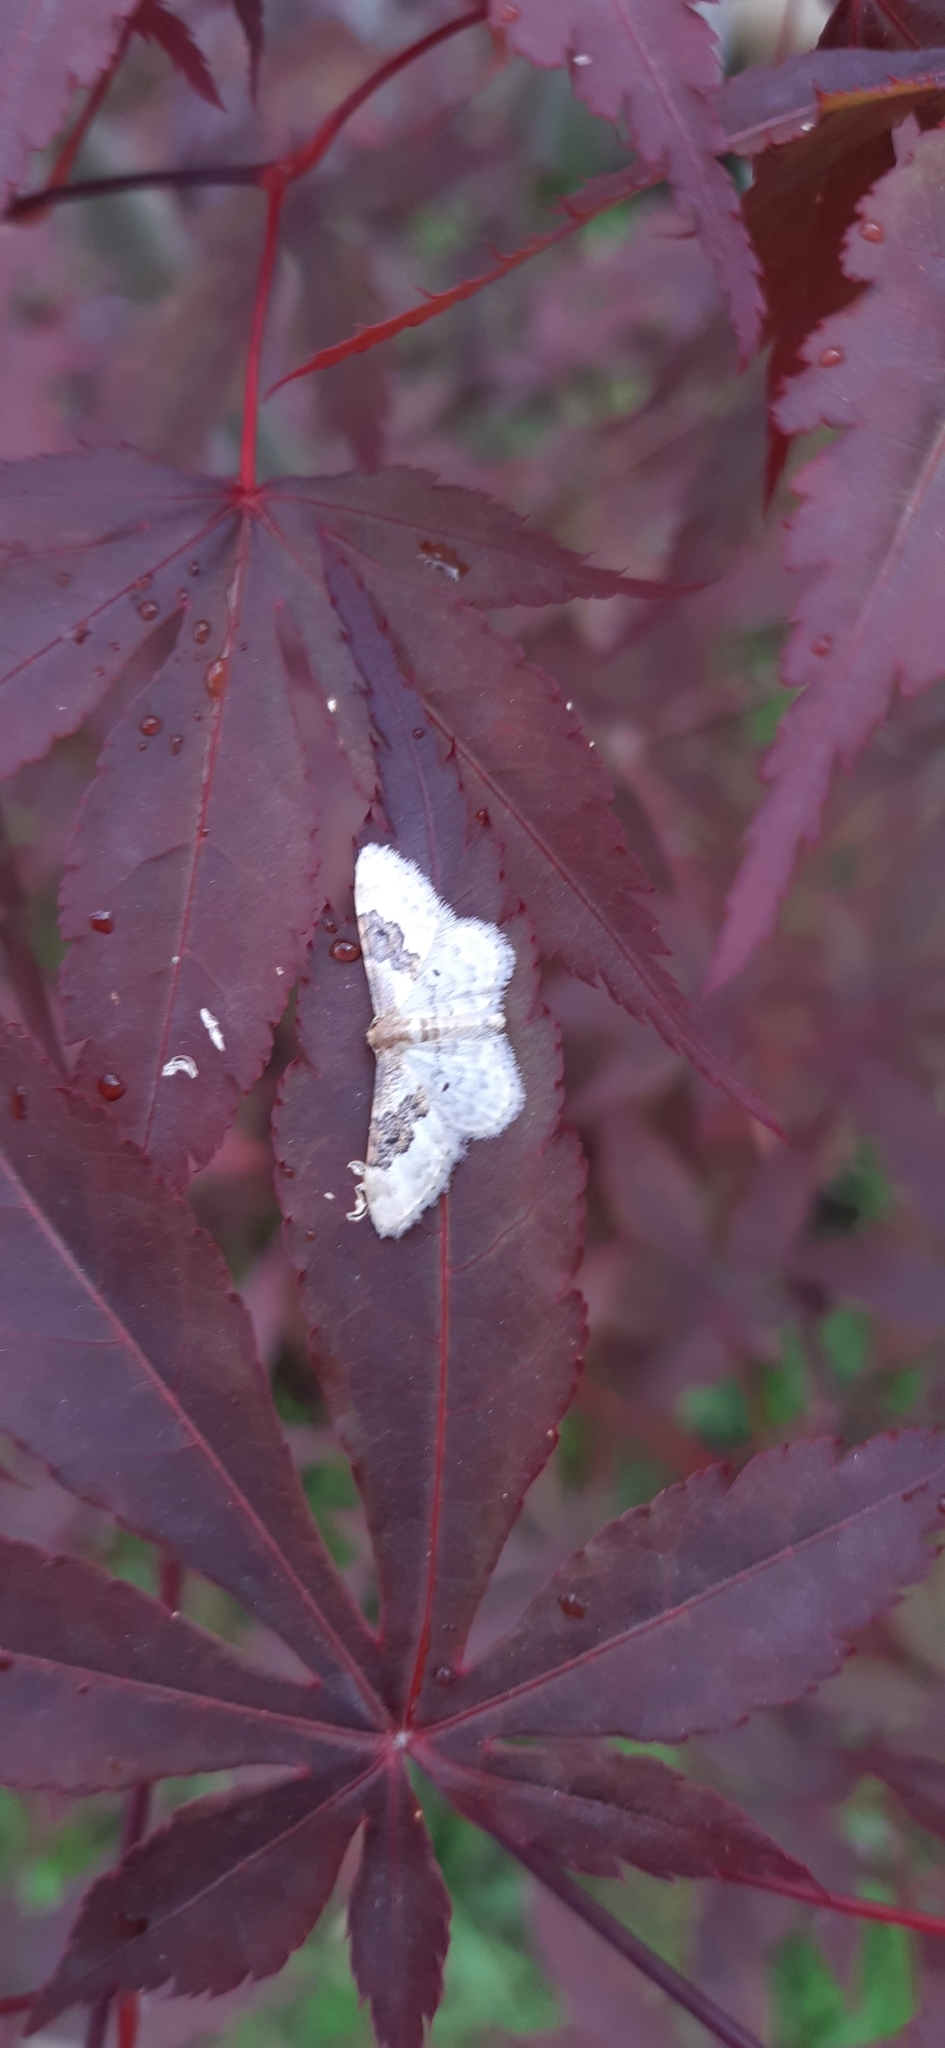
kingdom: Animalia
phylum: Arthropoda
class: Insecta
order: Lepidoptera
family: Geometridae
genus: Idaea
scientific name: Idaea rusticata
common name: Least carpet
